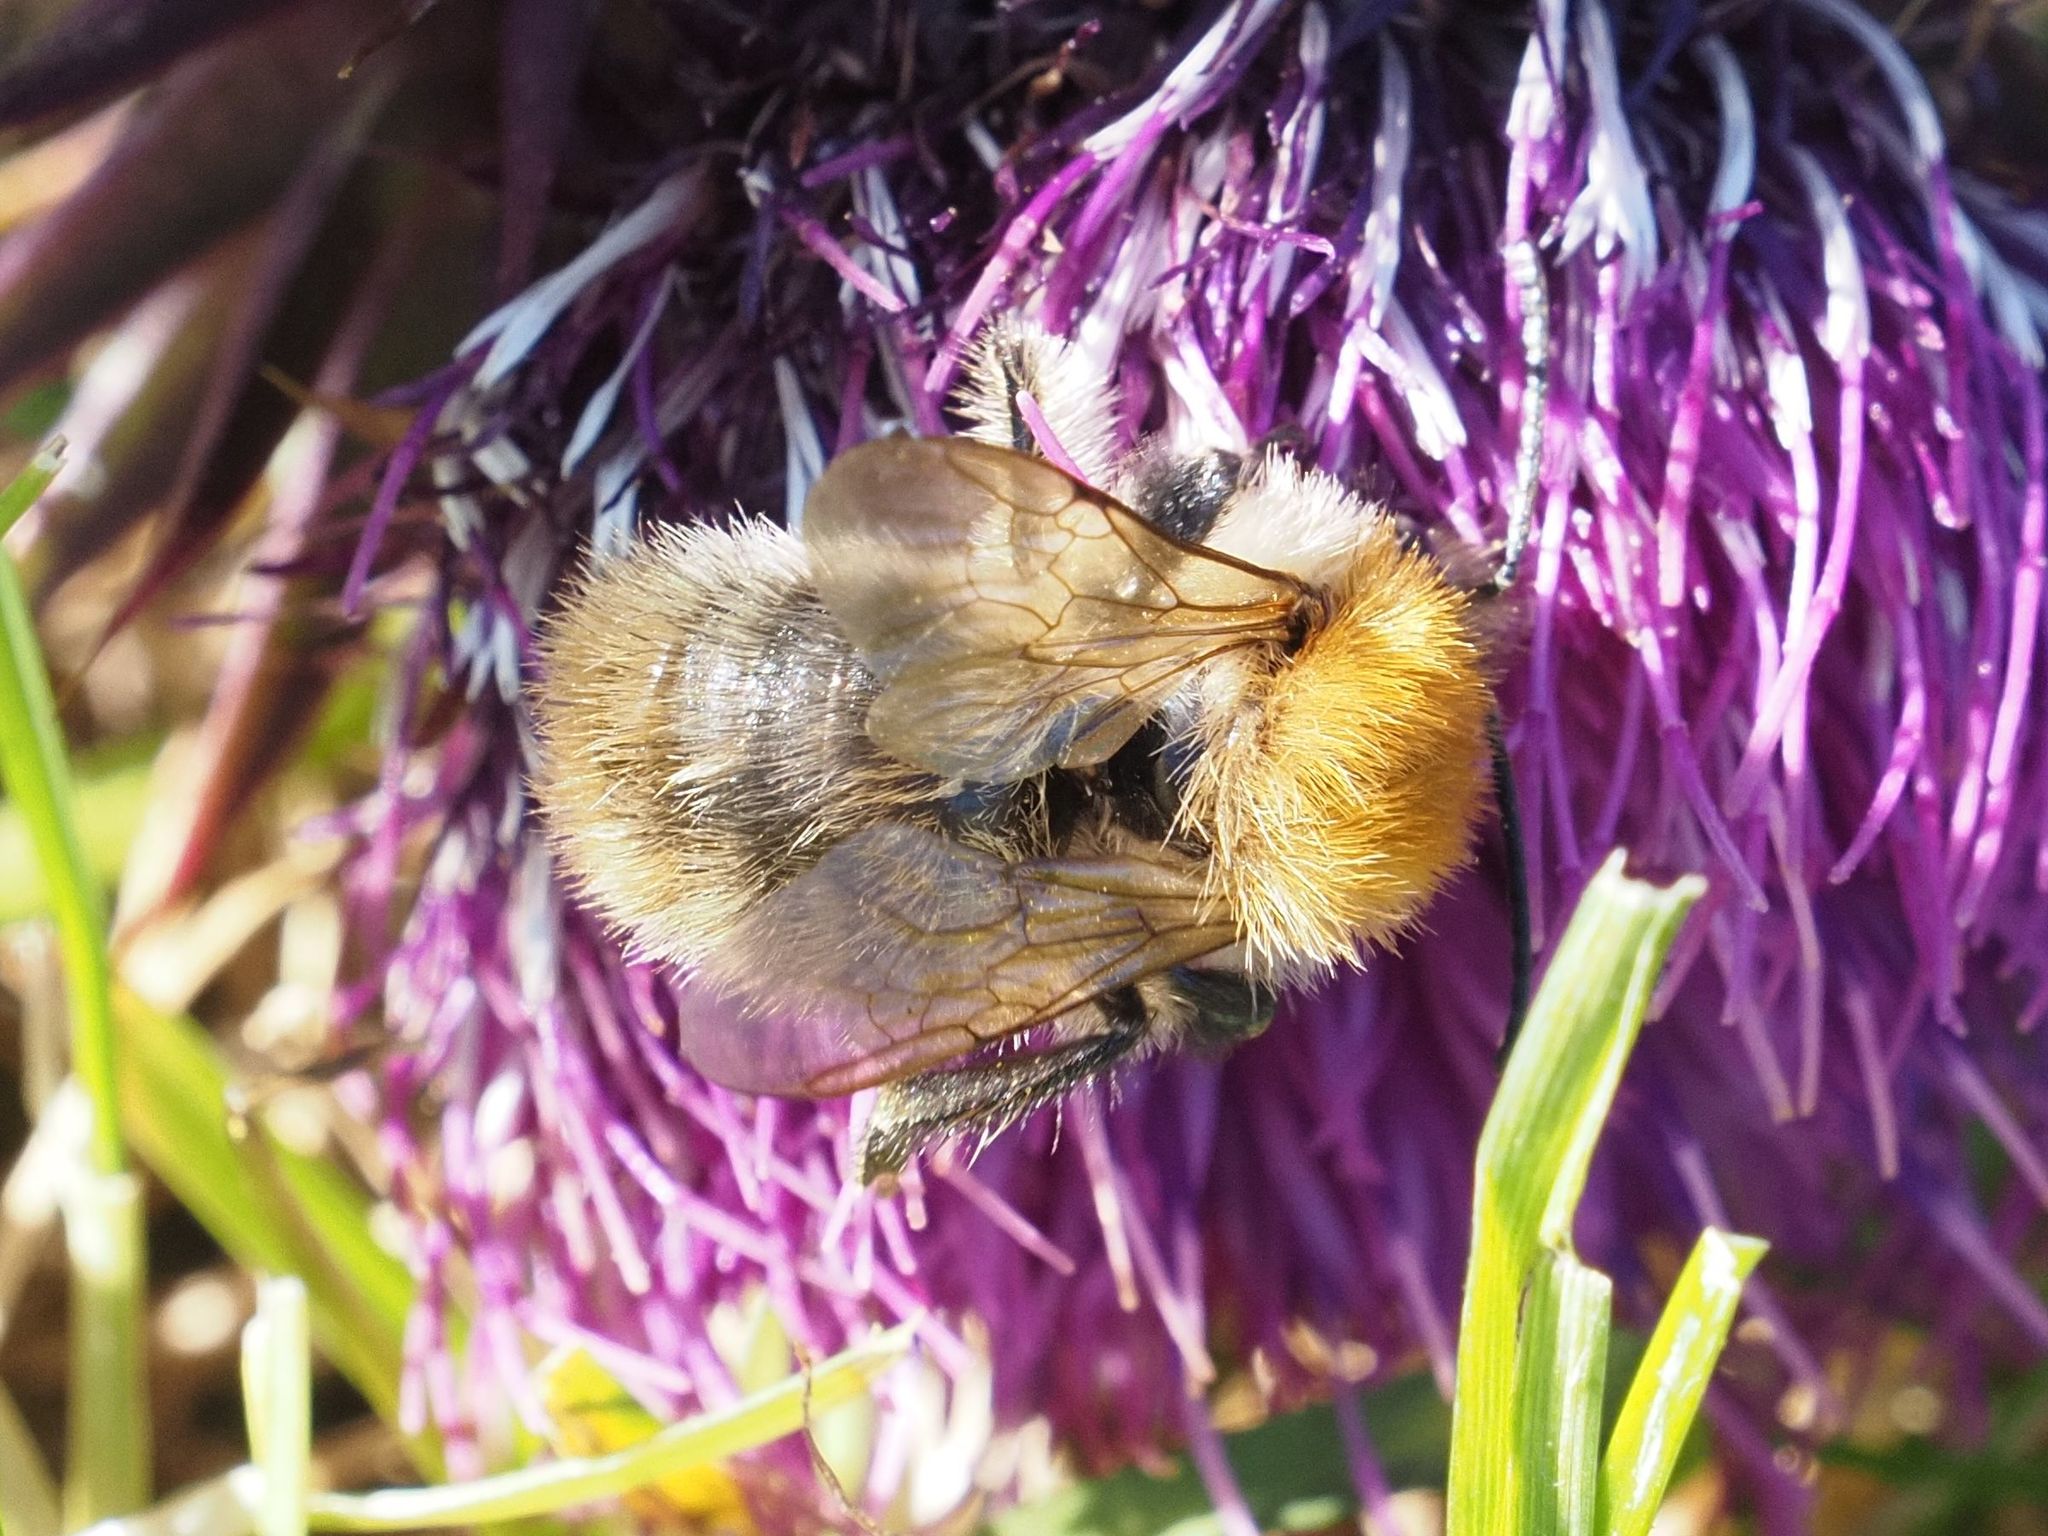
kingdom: Animalia
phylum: Arthropoda
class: Insecta
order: Hymenoptera
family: Apidae
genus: Bombus
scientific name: Bombus pascuorum
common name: Common carder bee
